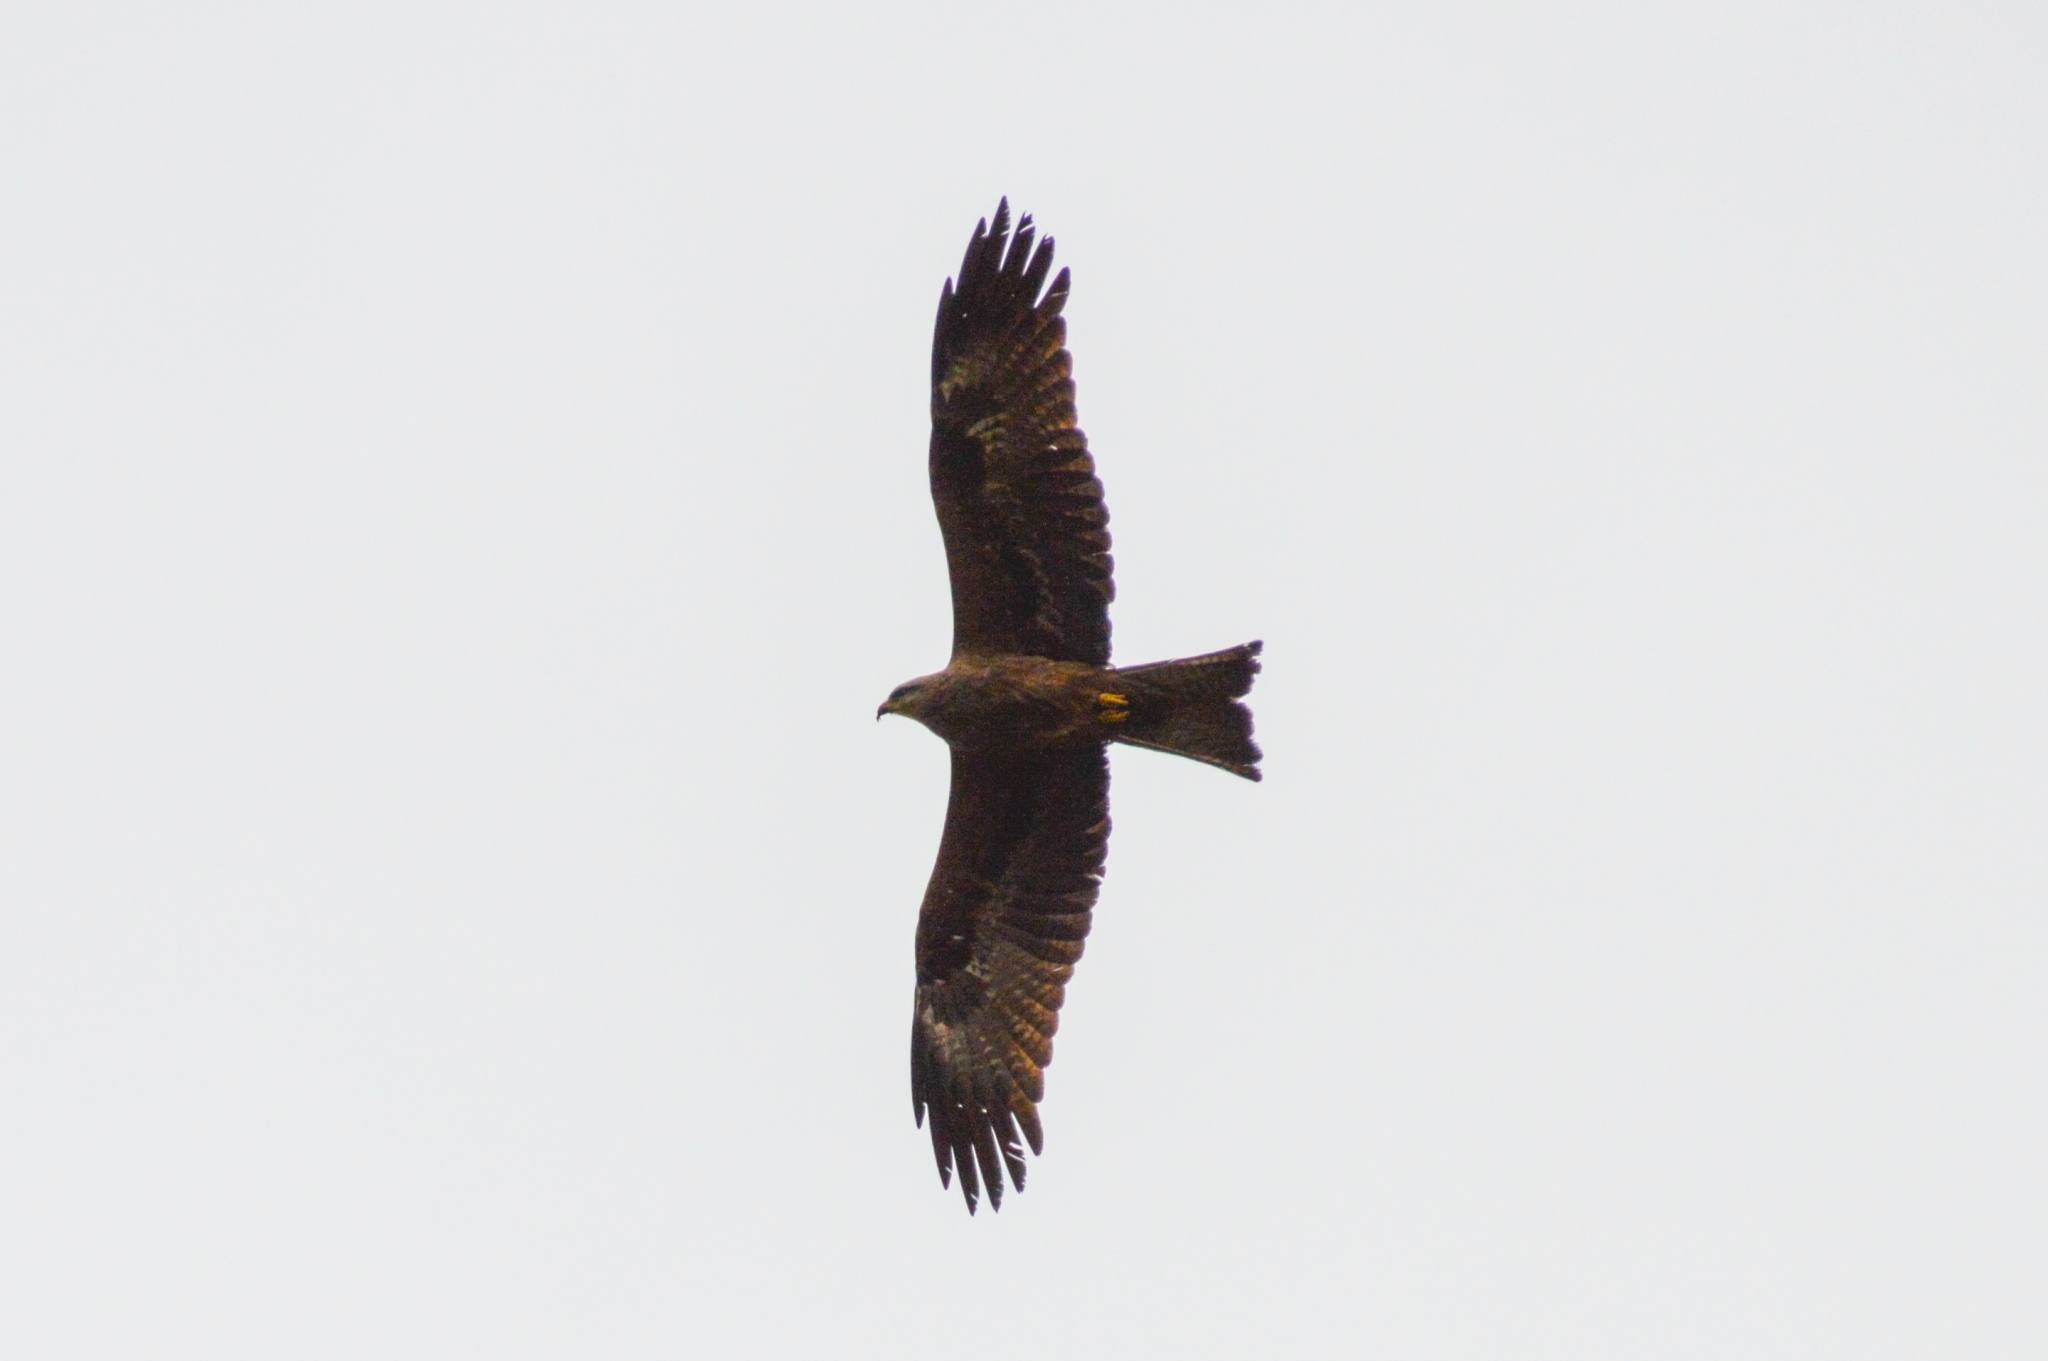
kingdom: Animalia
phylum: Chordata
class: Aves
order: Accipitriformes
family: Accipitridae
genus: Milvus
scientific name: Milvus migrans
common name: Black kite
